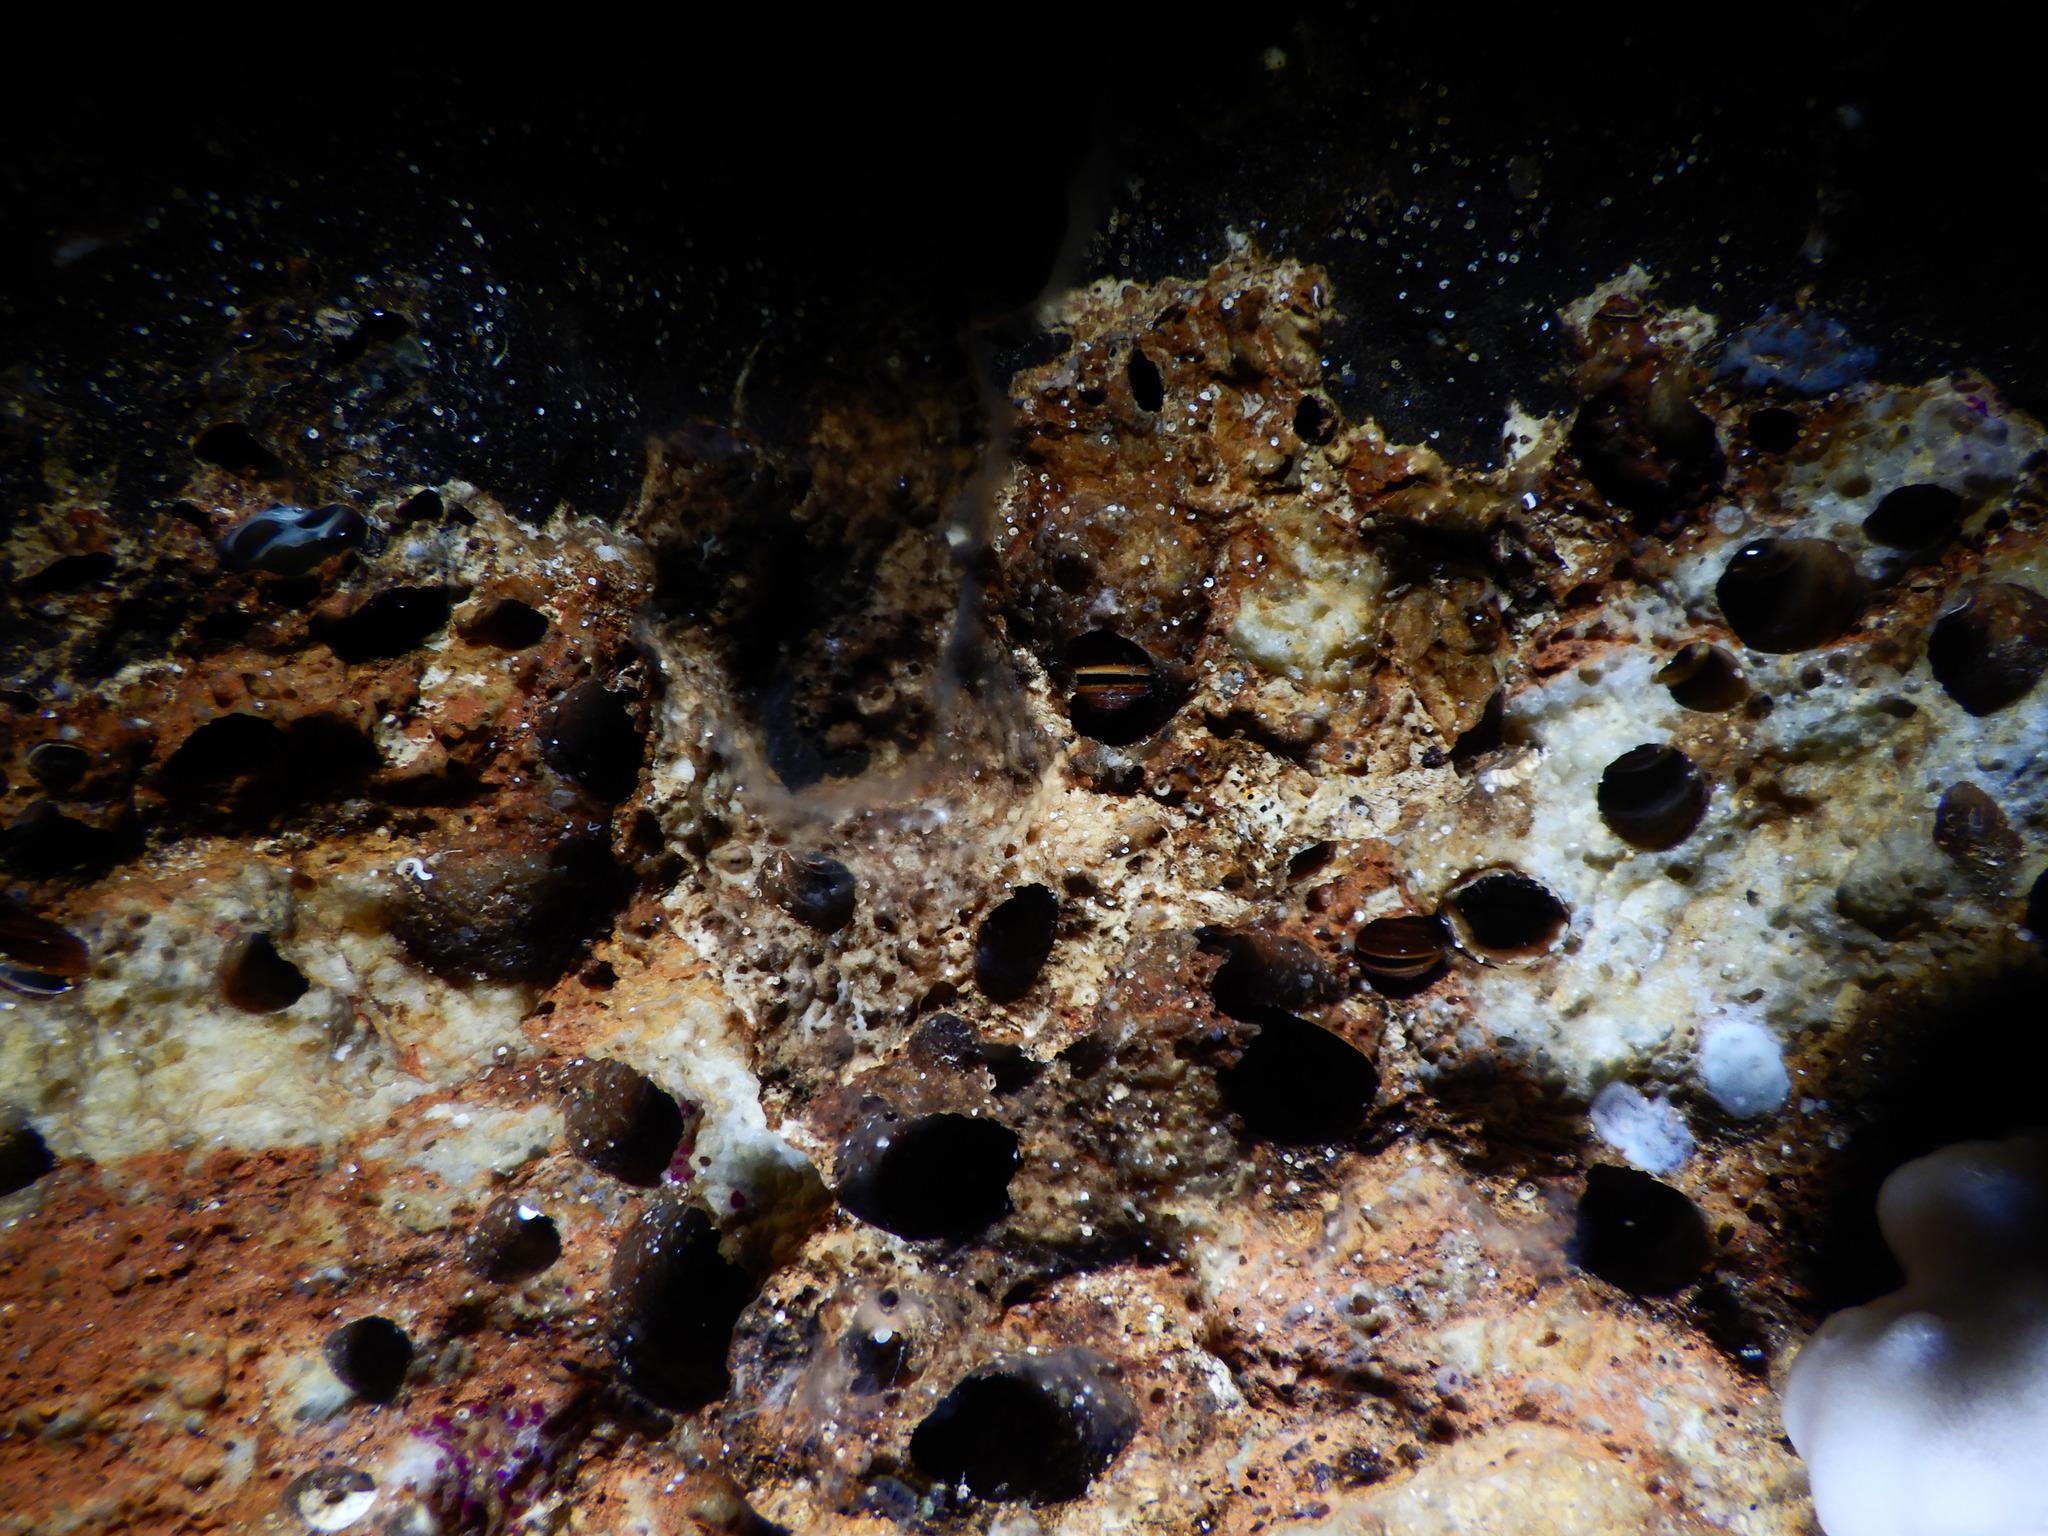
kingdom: Animalia
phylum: Mollusca
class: Bivalvia
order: Mytilida
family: Mytilidae
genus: Lithophaga
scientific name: Lithophaga lithophaga
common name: European date mussel
